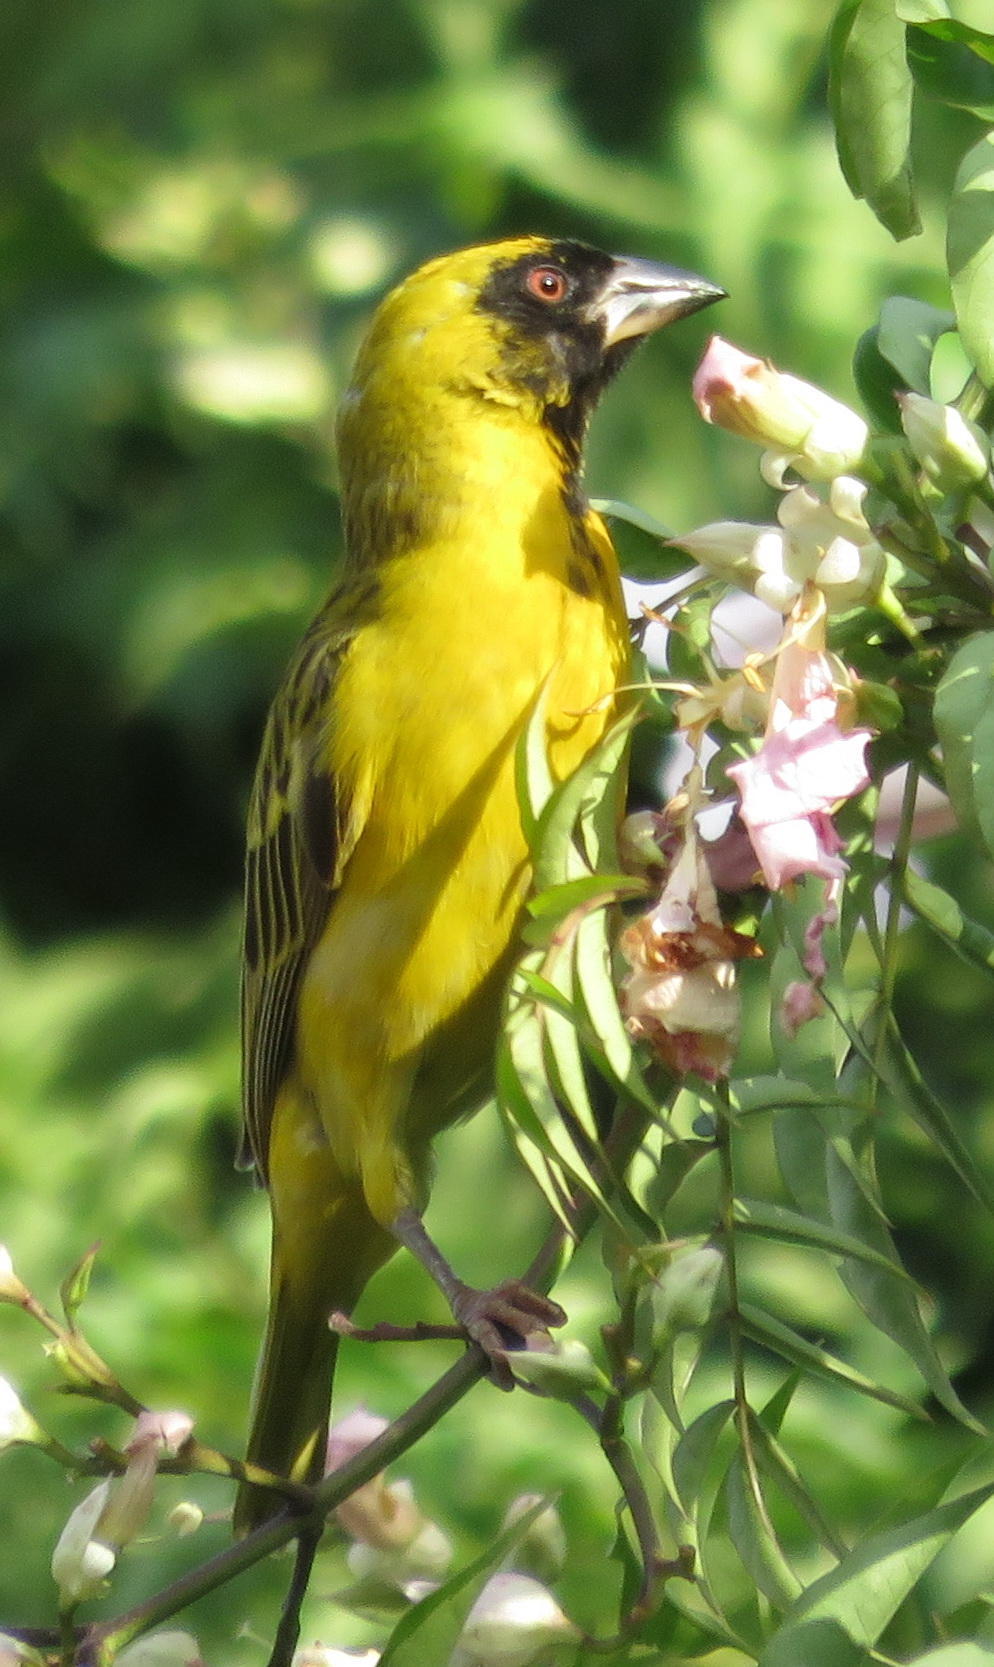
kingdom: Animalia
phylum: Chordata
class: Aves
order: Passeriformes
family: Ploceidae
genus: Ploceus
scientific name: Ploceus velatus
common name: Southern masked weaver
